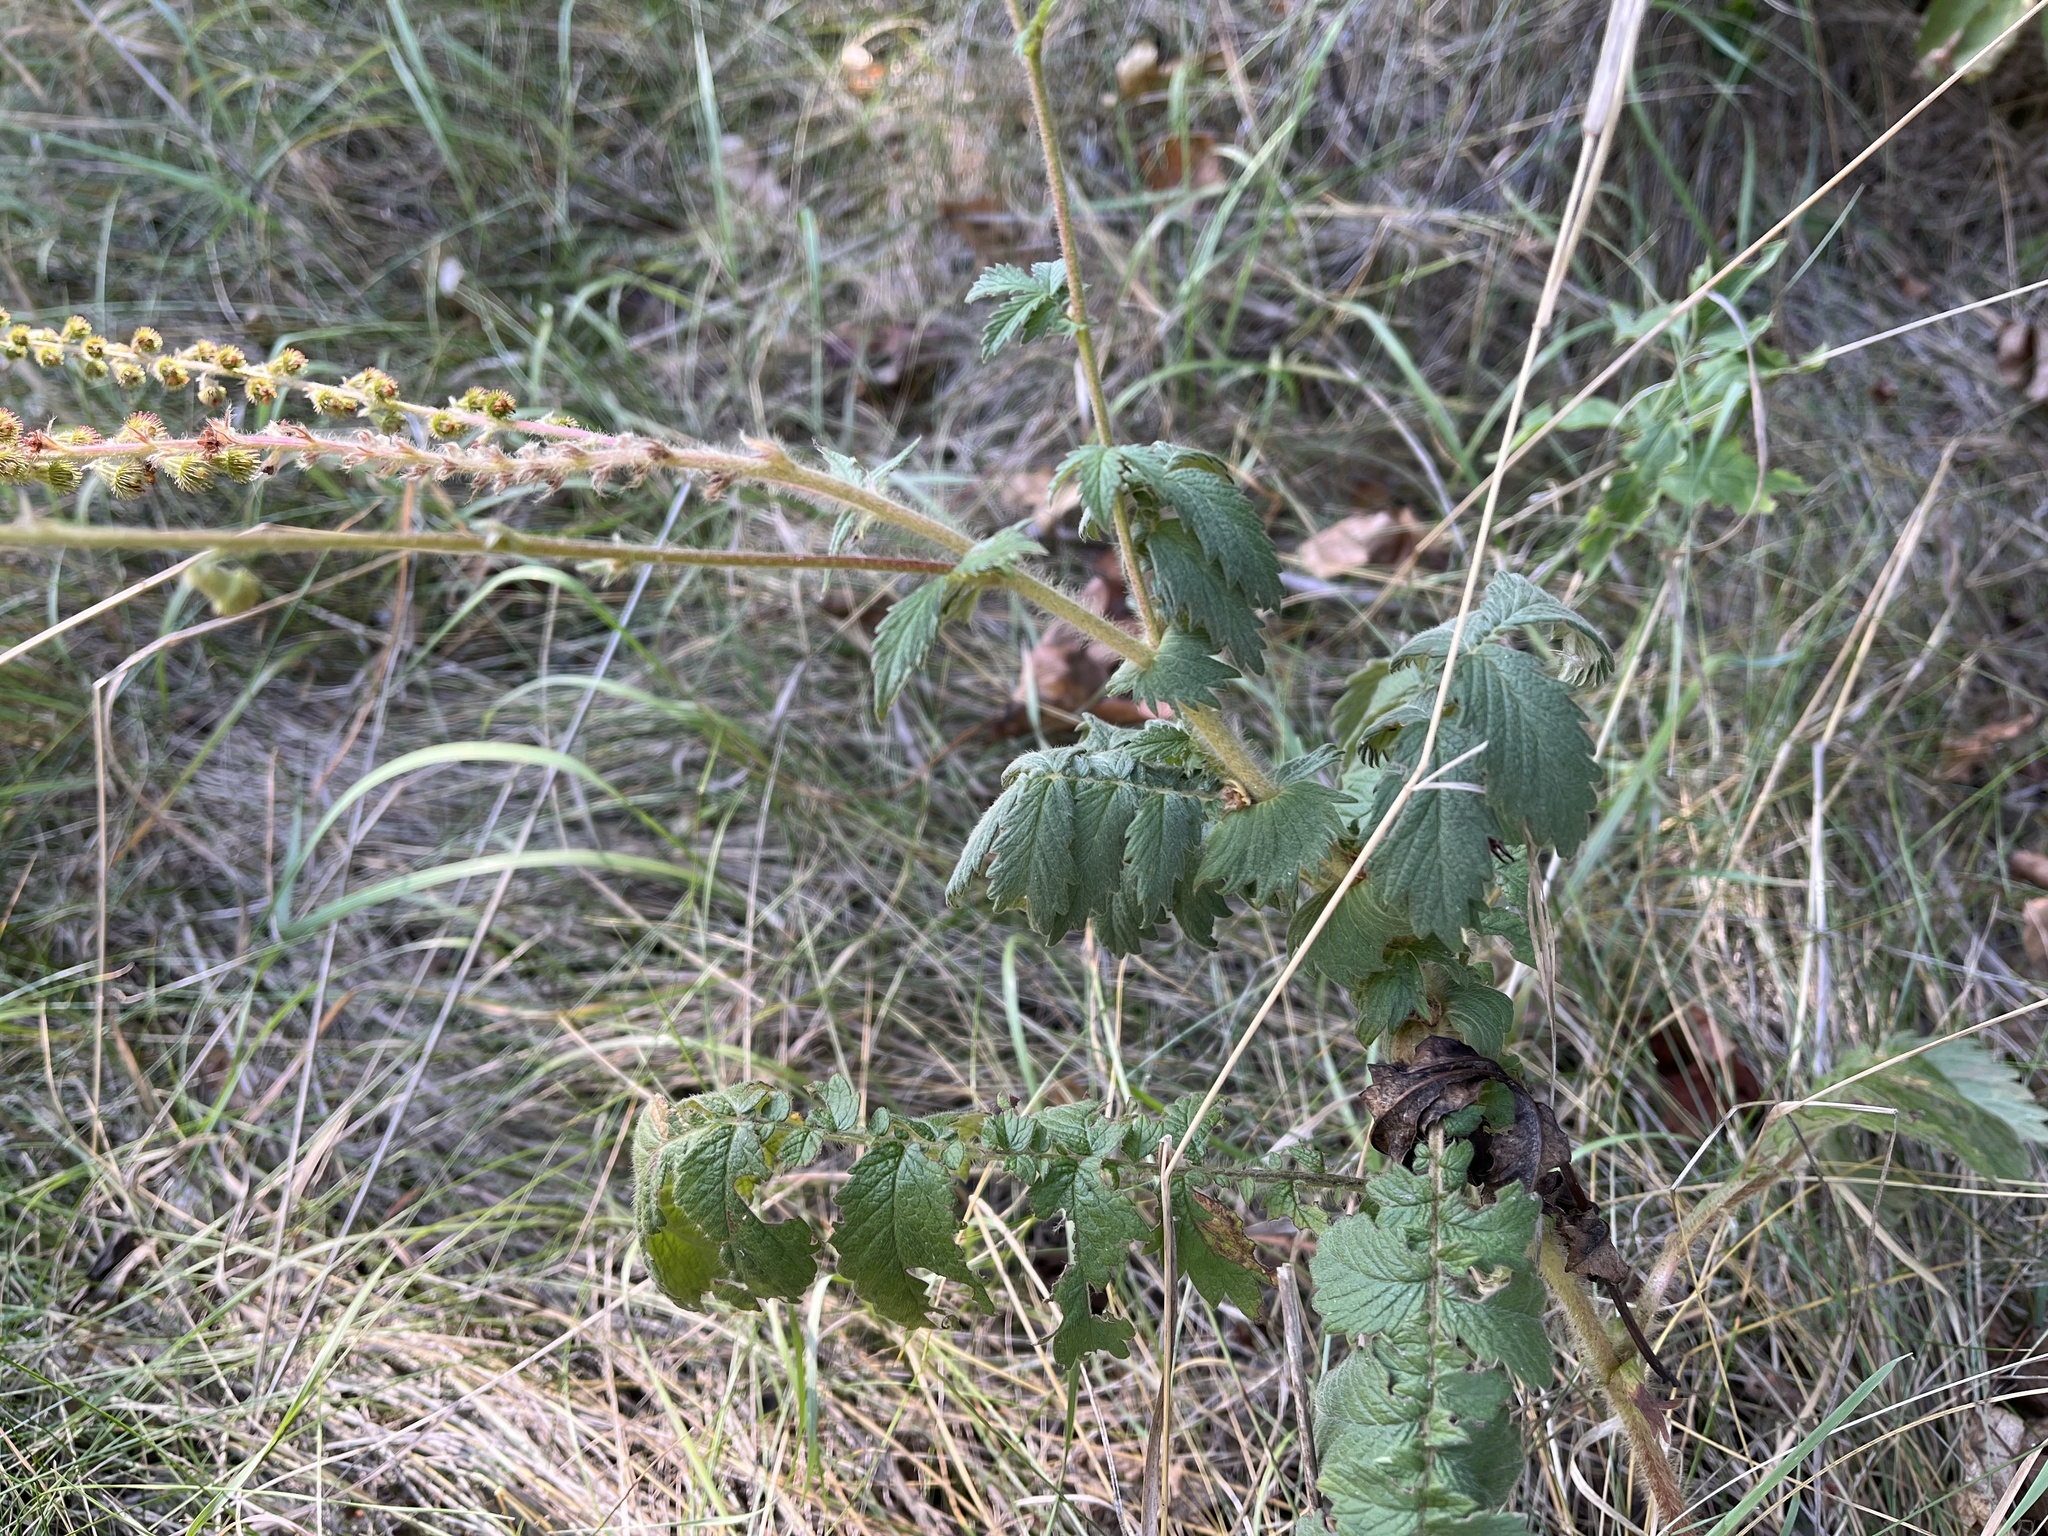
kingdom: Plantae
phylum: Tracheophyta
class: Magnoliopsida
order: Rosales
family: Rosaceae
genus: Agrimonia
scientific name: Agrimonia eupatoria
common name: Agrimony
